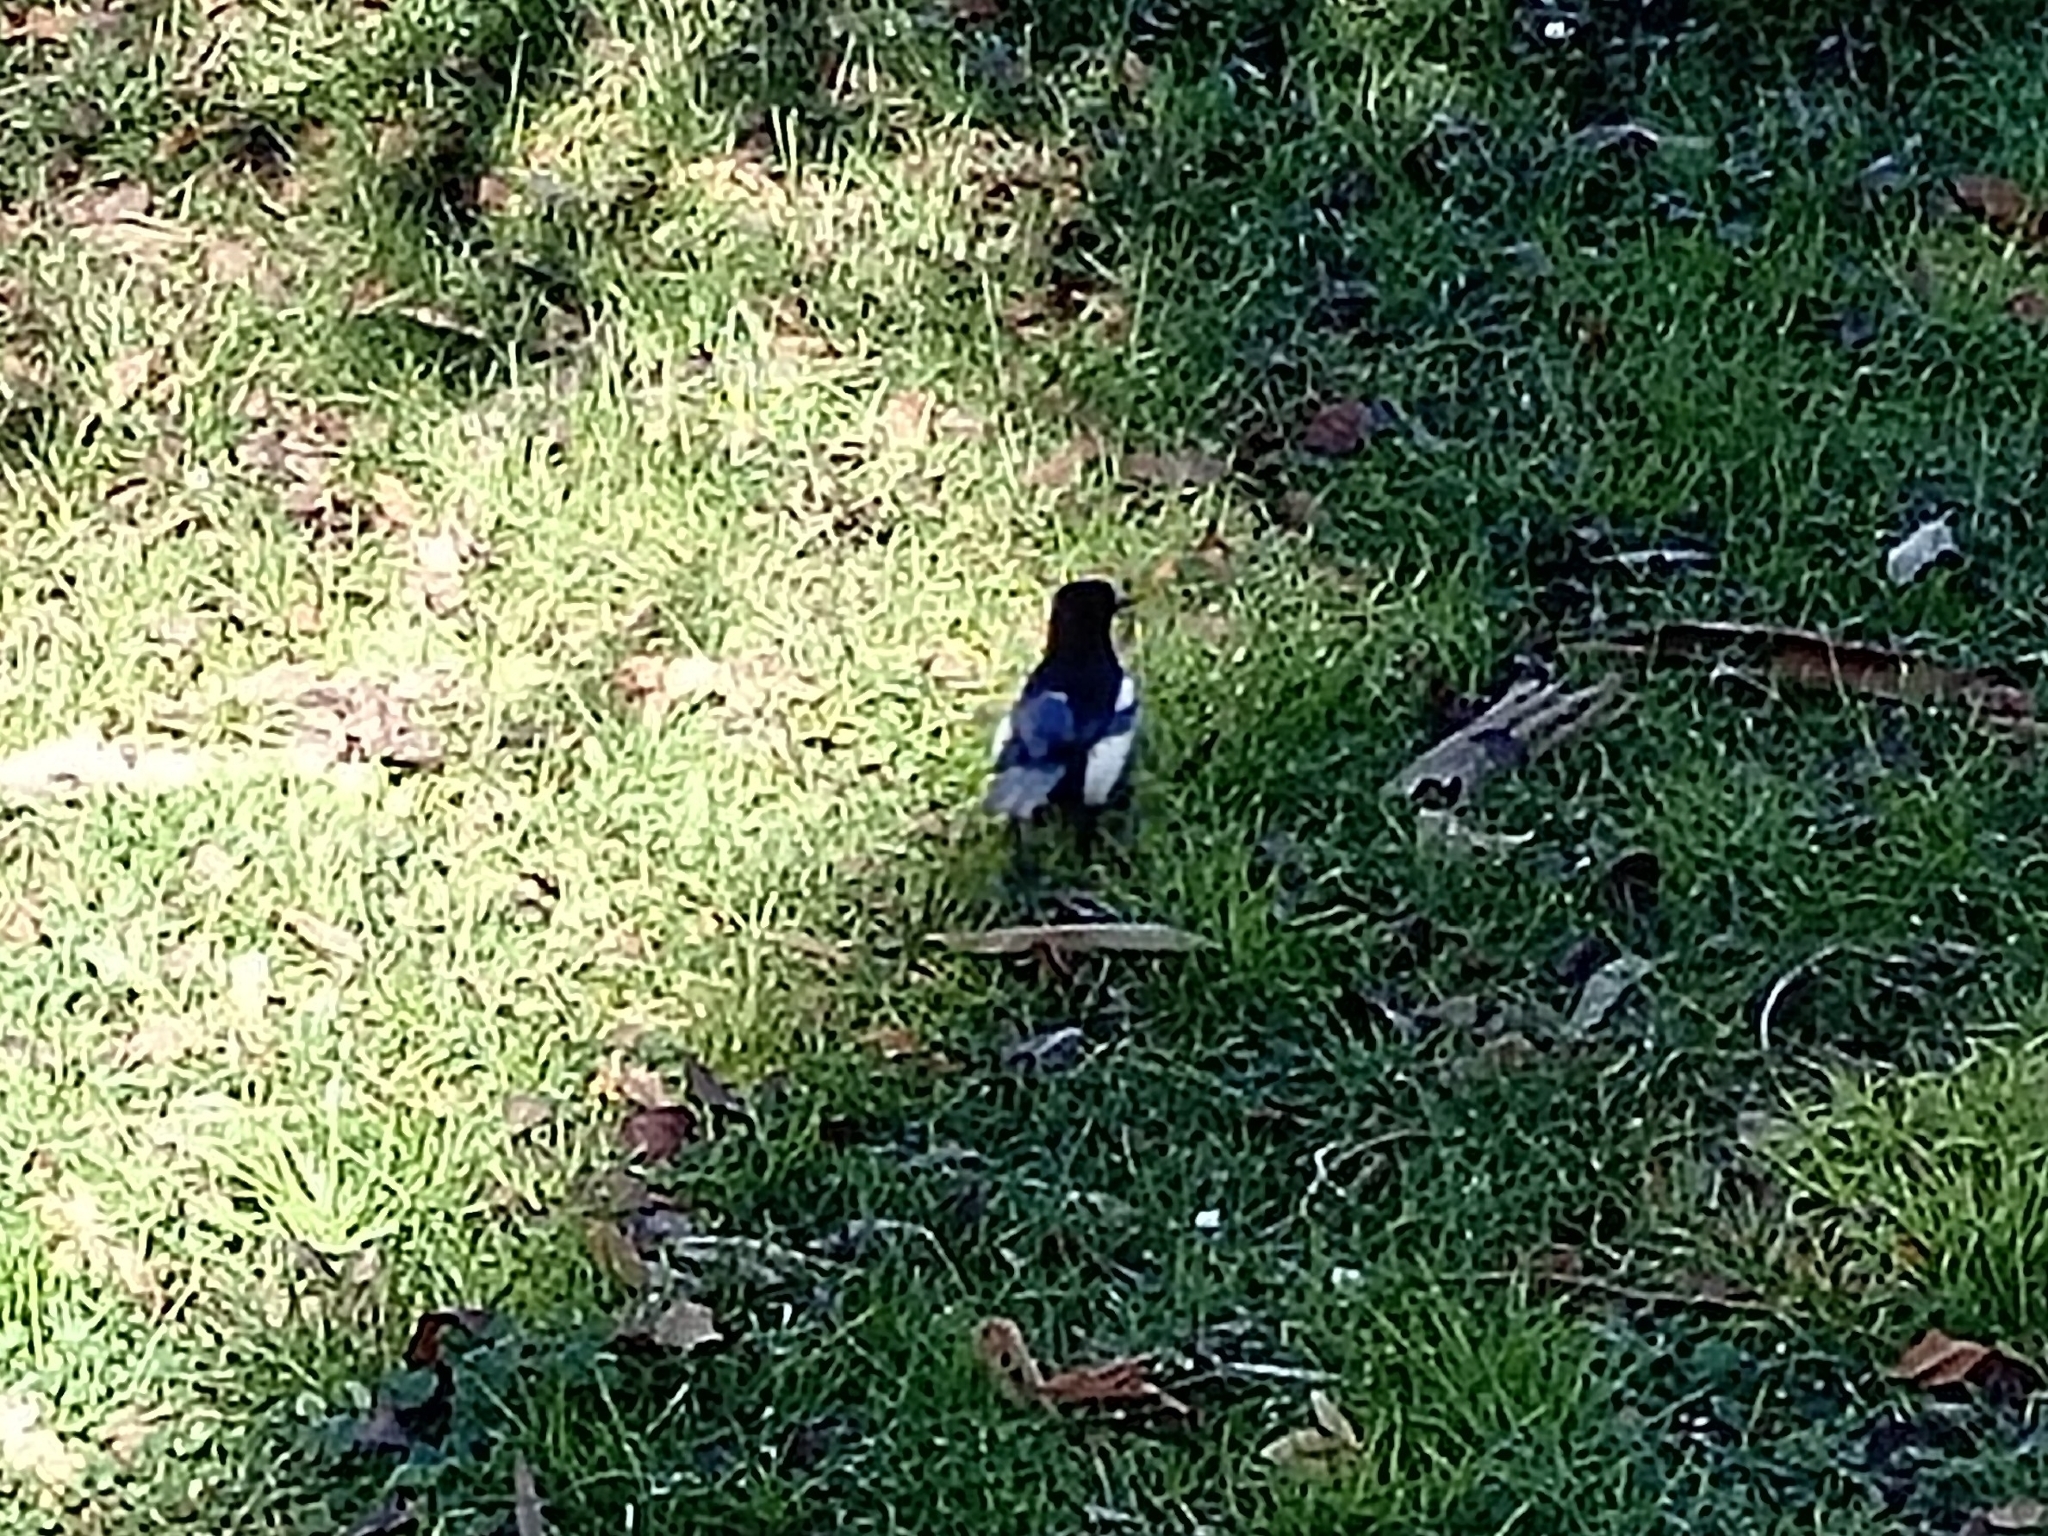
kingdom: Animalia
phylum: Chordata
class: Aves
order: Passeriformes
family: Corvidae
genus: Pica
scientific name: Pica pica
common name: Eurasian magpie
